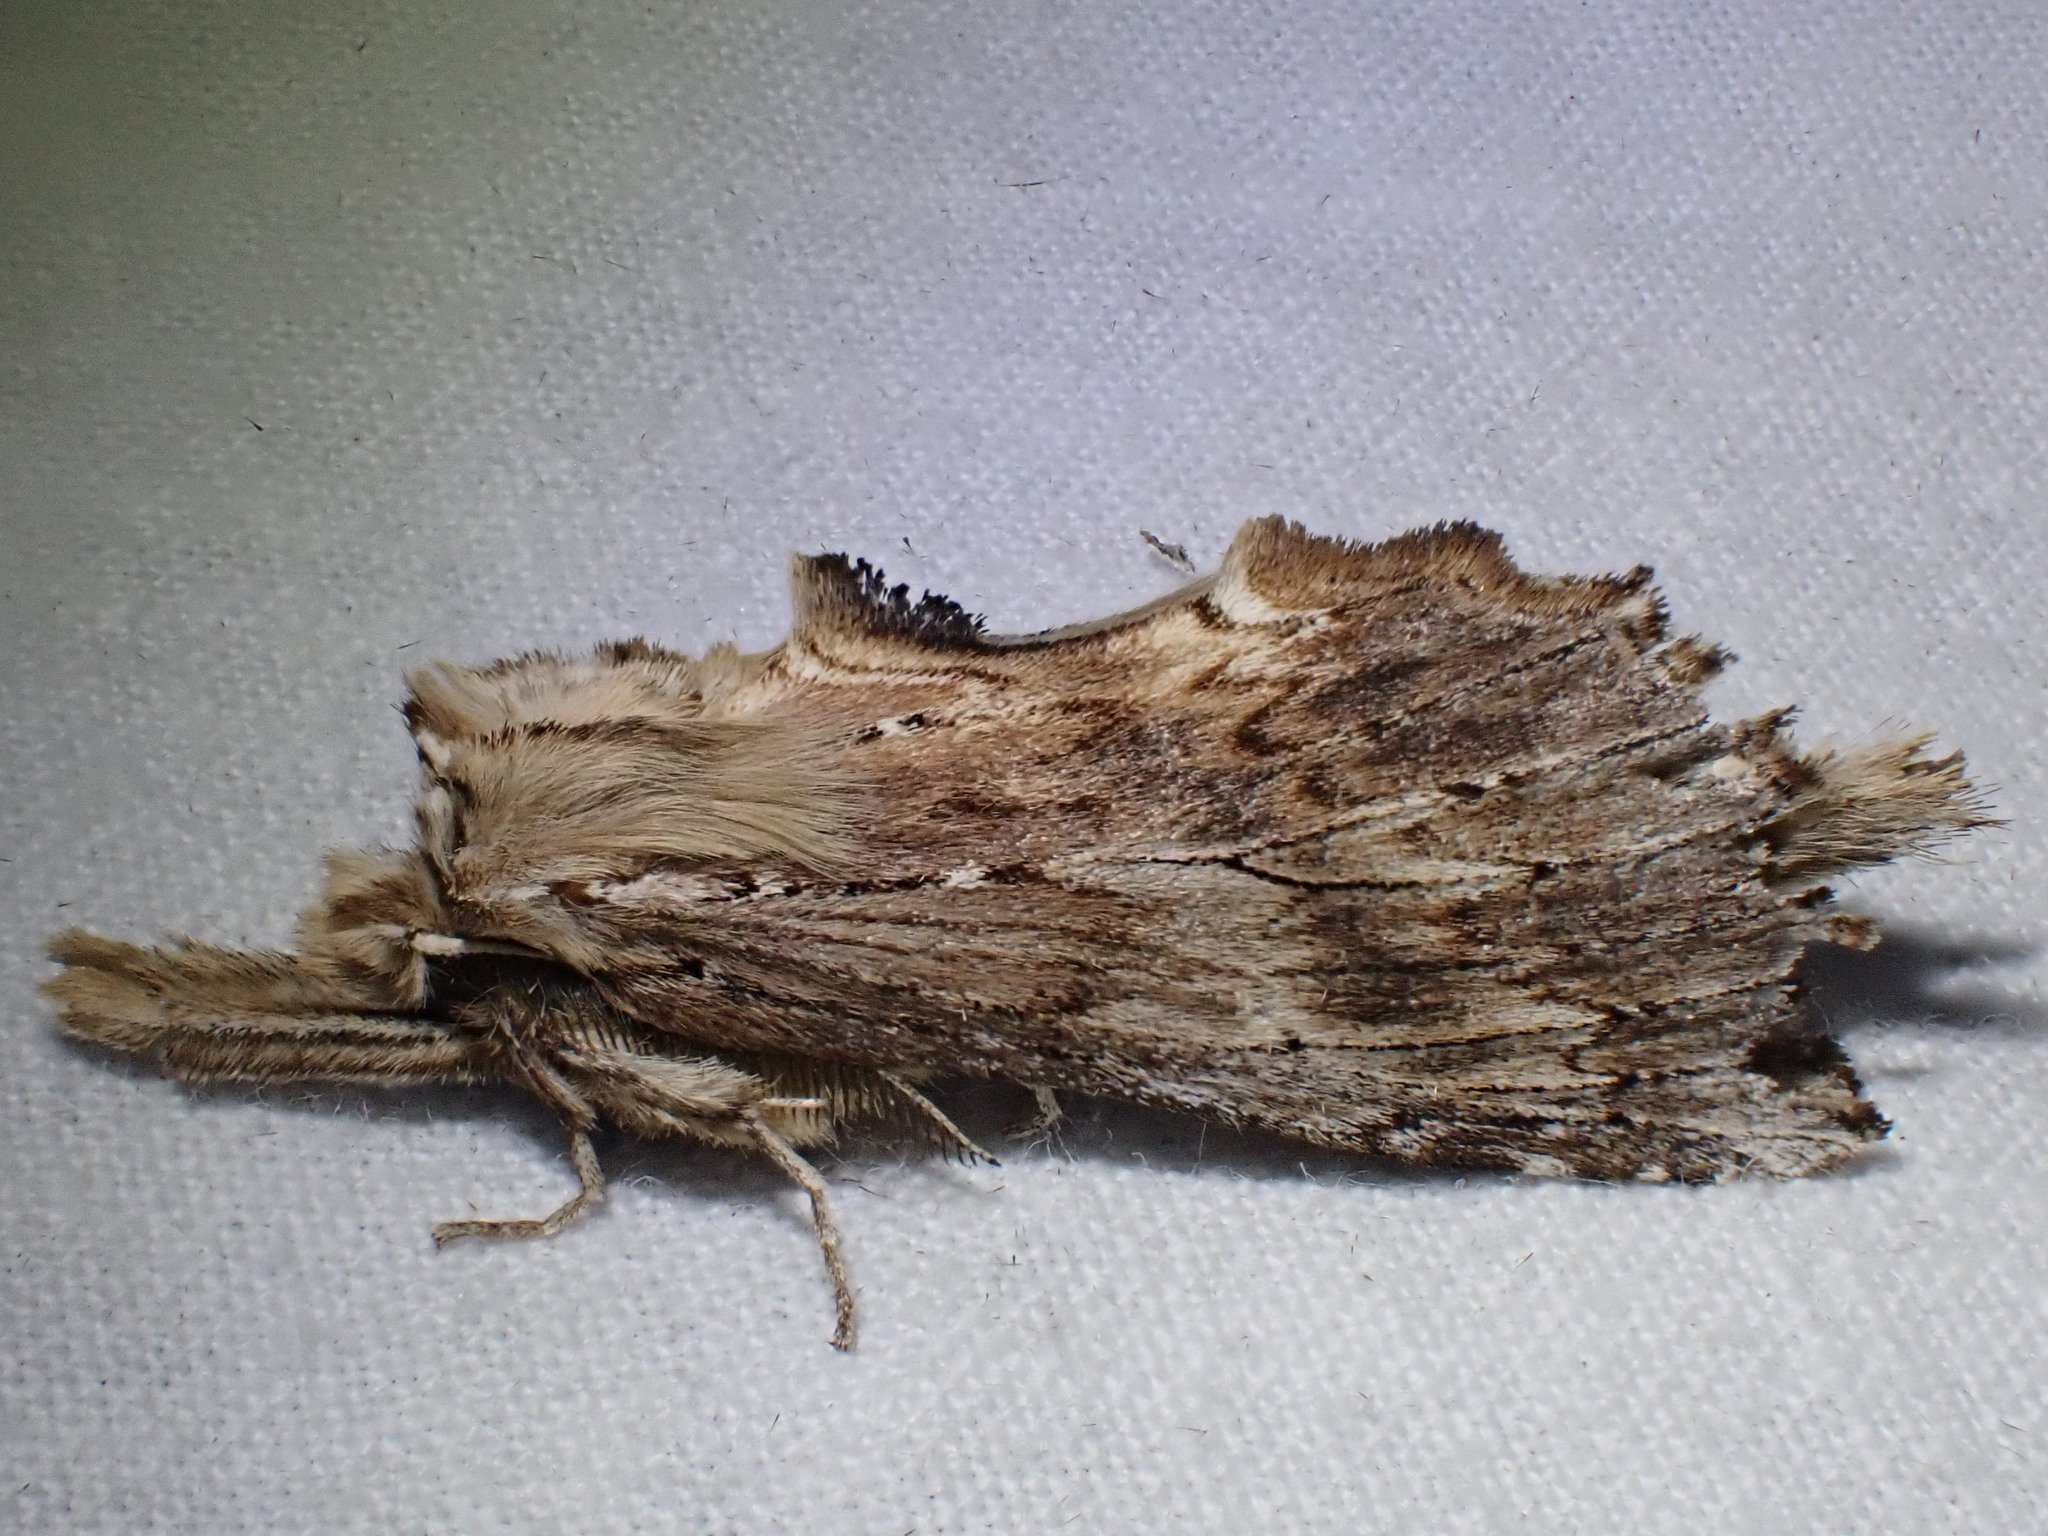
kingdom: Animalia
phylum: Arthropoda
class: Insecta
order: Lepidoptera
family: Notodontidae
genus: Pterostoma
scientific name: Pterostoma palpina
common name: Pale prominent
